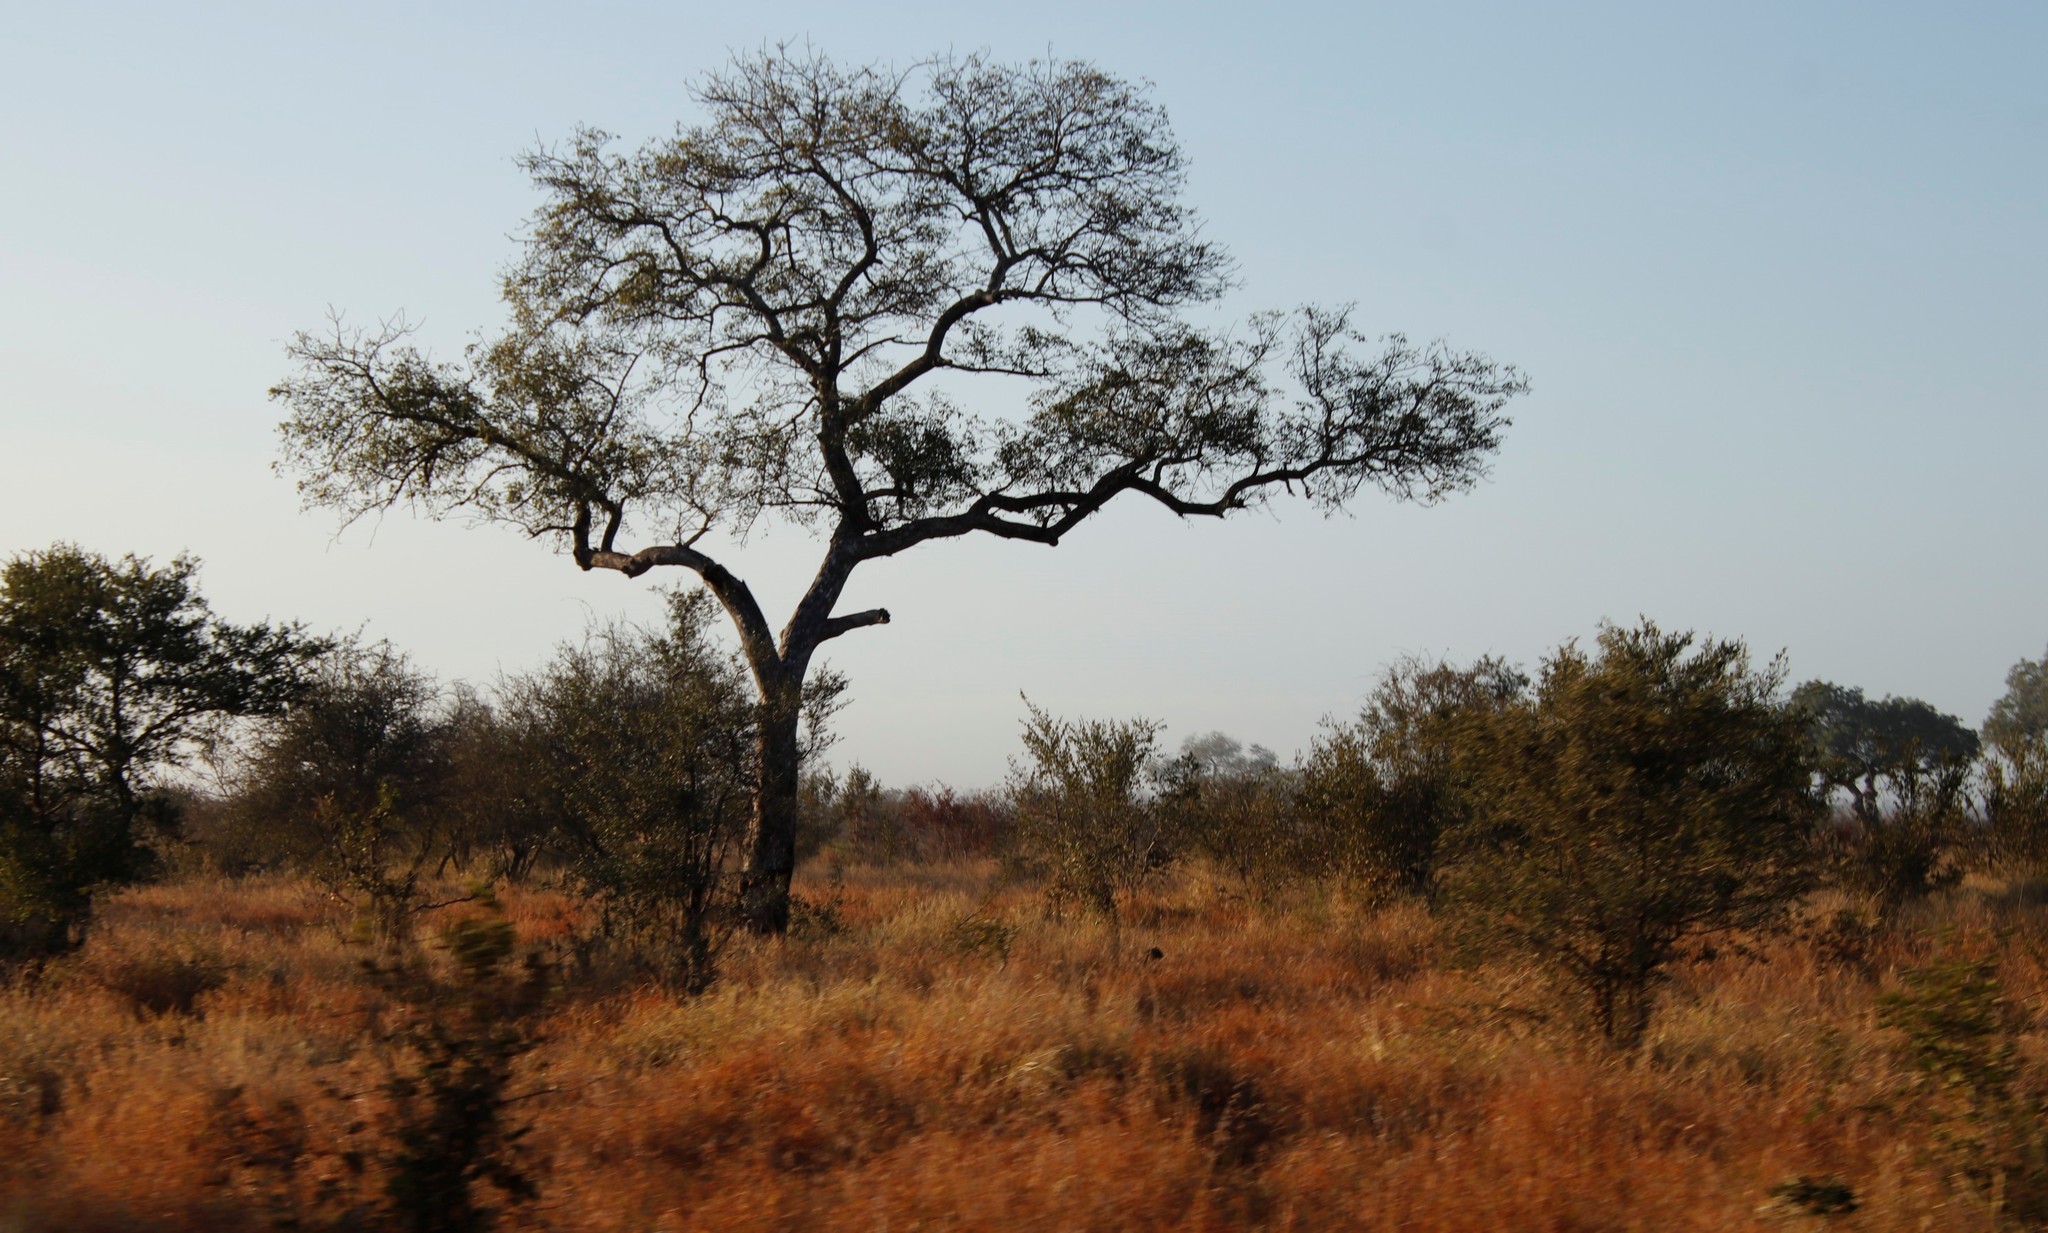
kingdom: Plantae
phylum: Tracheophyta
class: Magnoliopsida
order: Sapindales
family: Anacardiaceae
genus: Sclerocarya
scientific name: Sclerocarya birrea
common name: Marula
